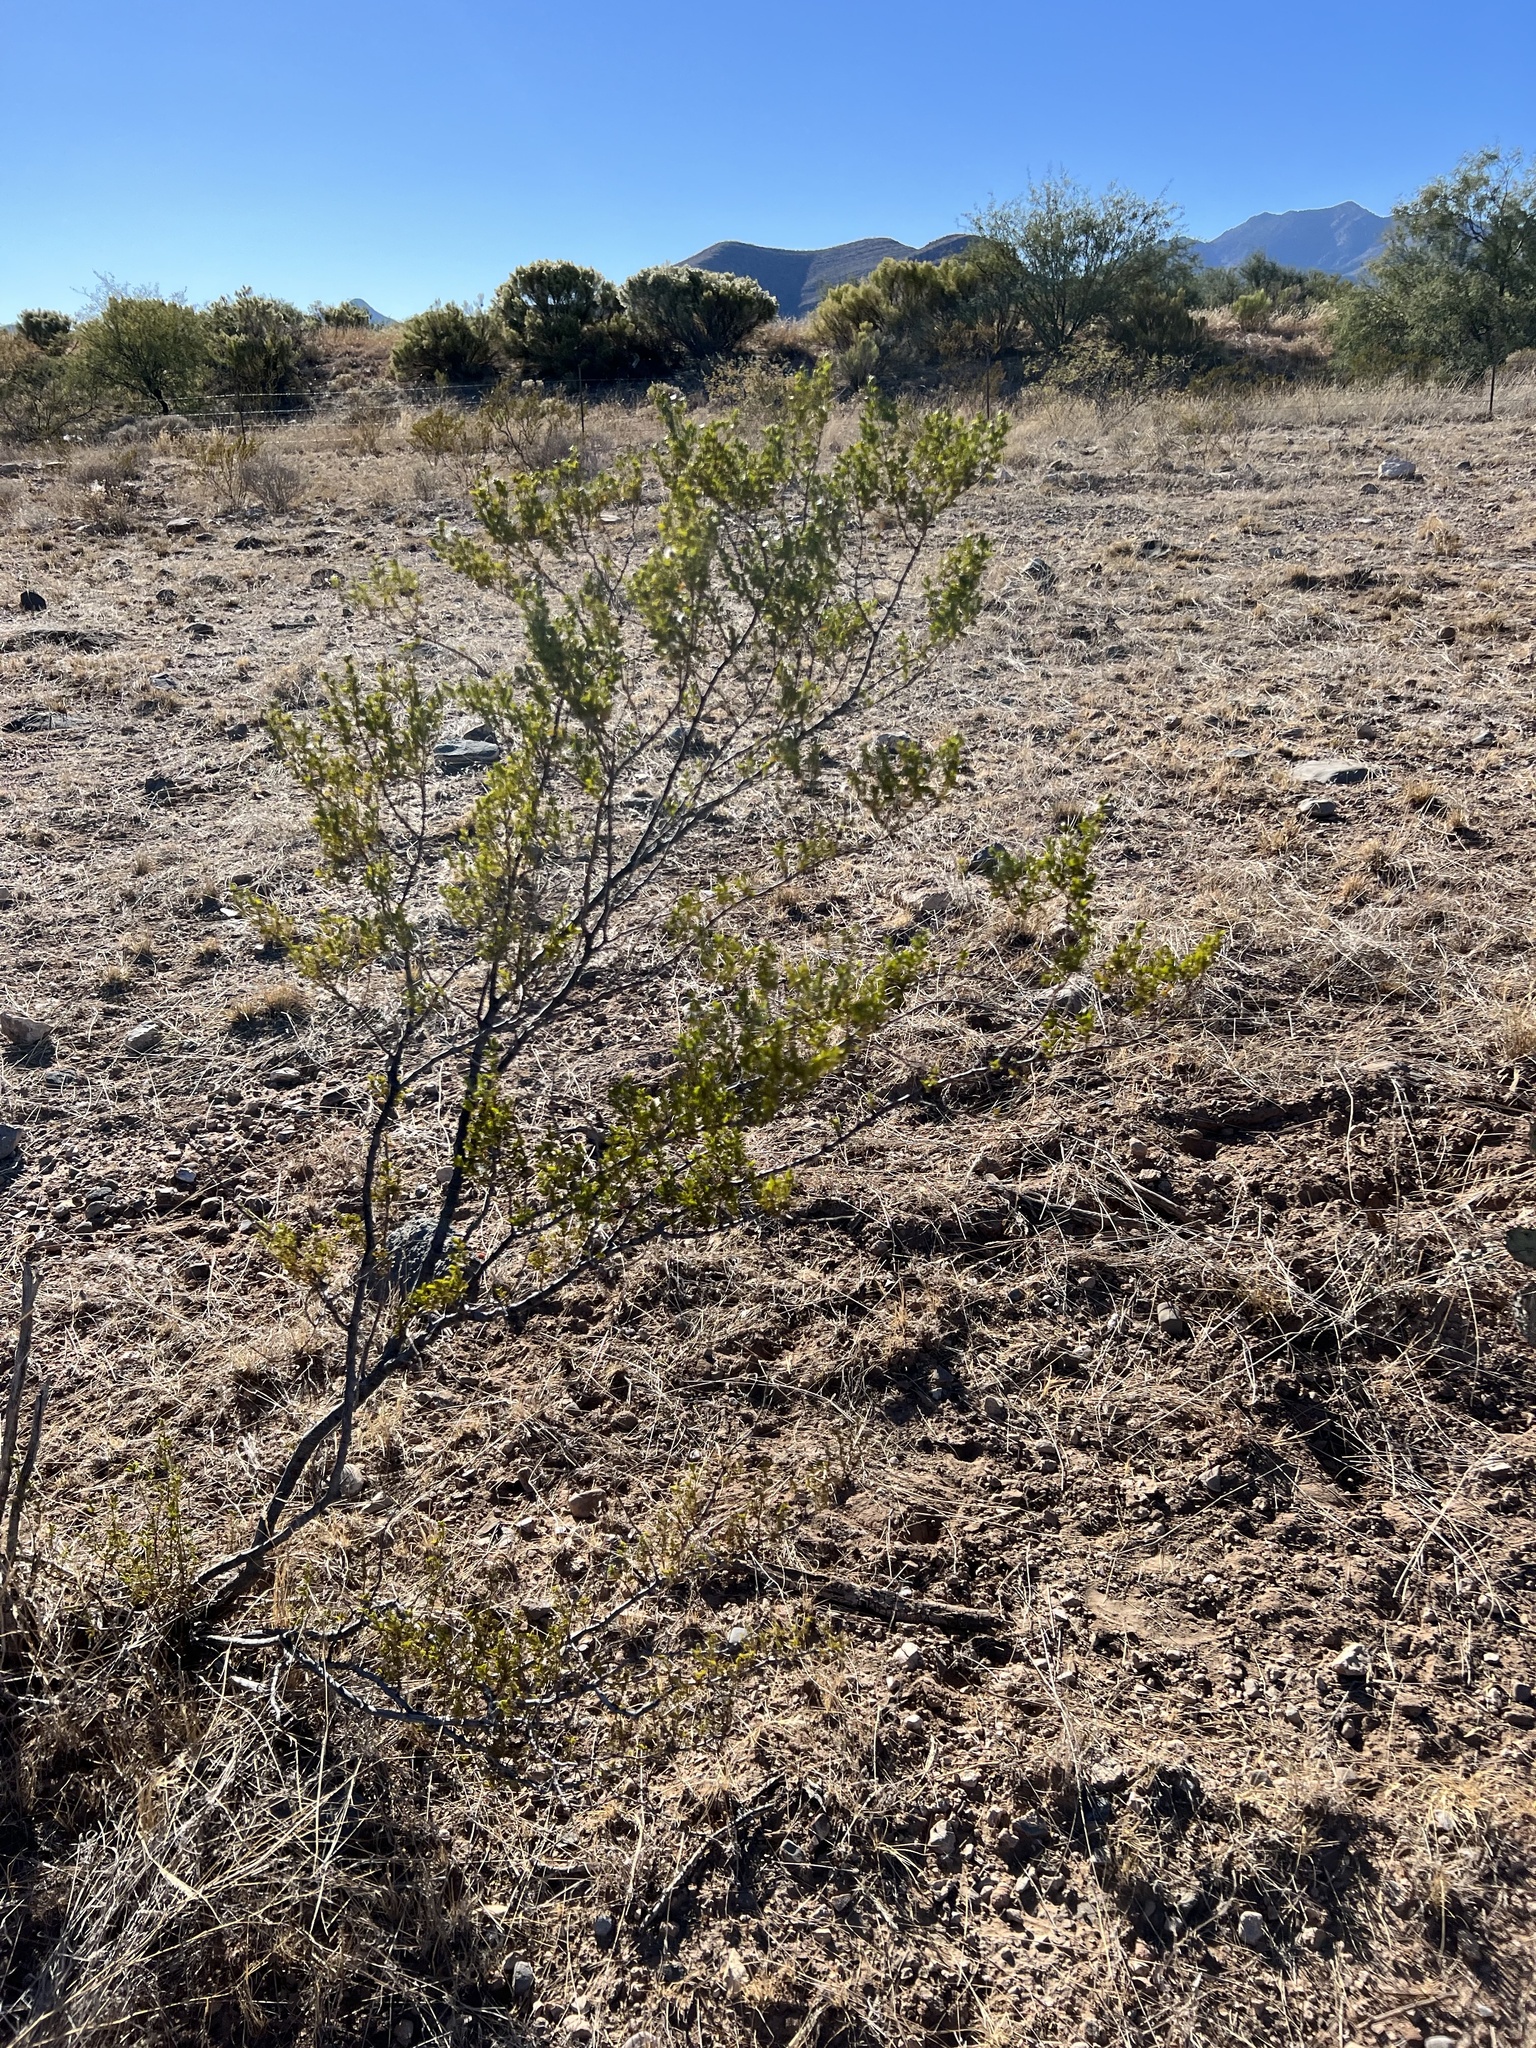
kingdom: Plantae
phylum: Tracheophyta
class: Magnoliopsida
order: Zygophyllales
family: Zygophyllaceae
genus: Larrea
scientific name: Larrea tridentata
